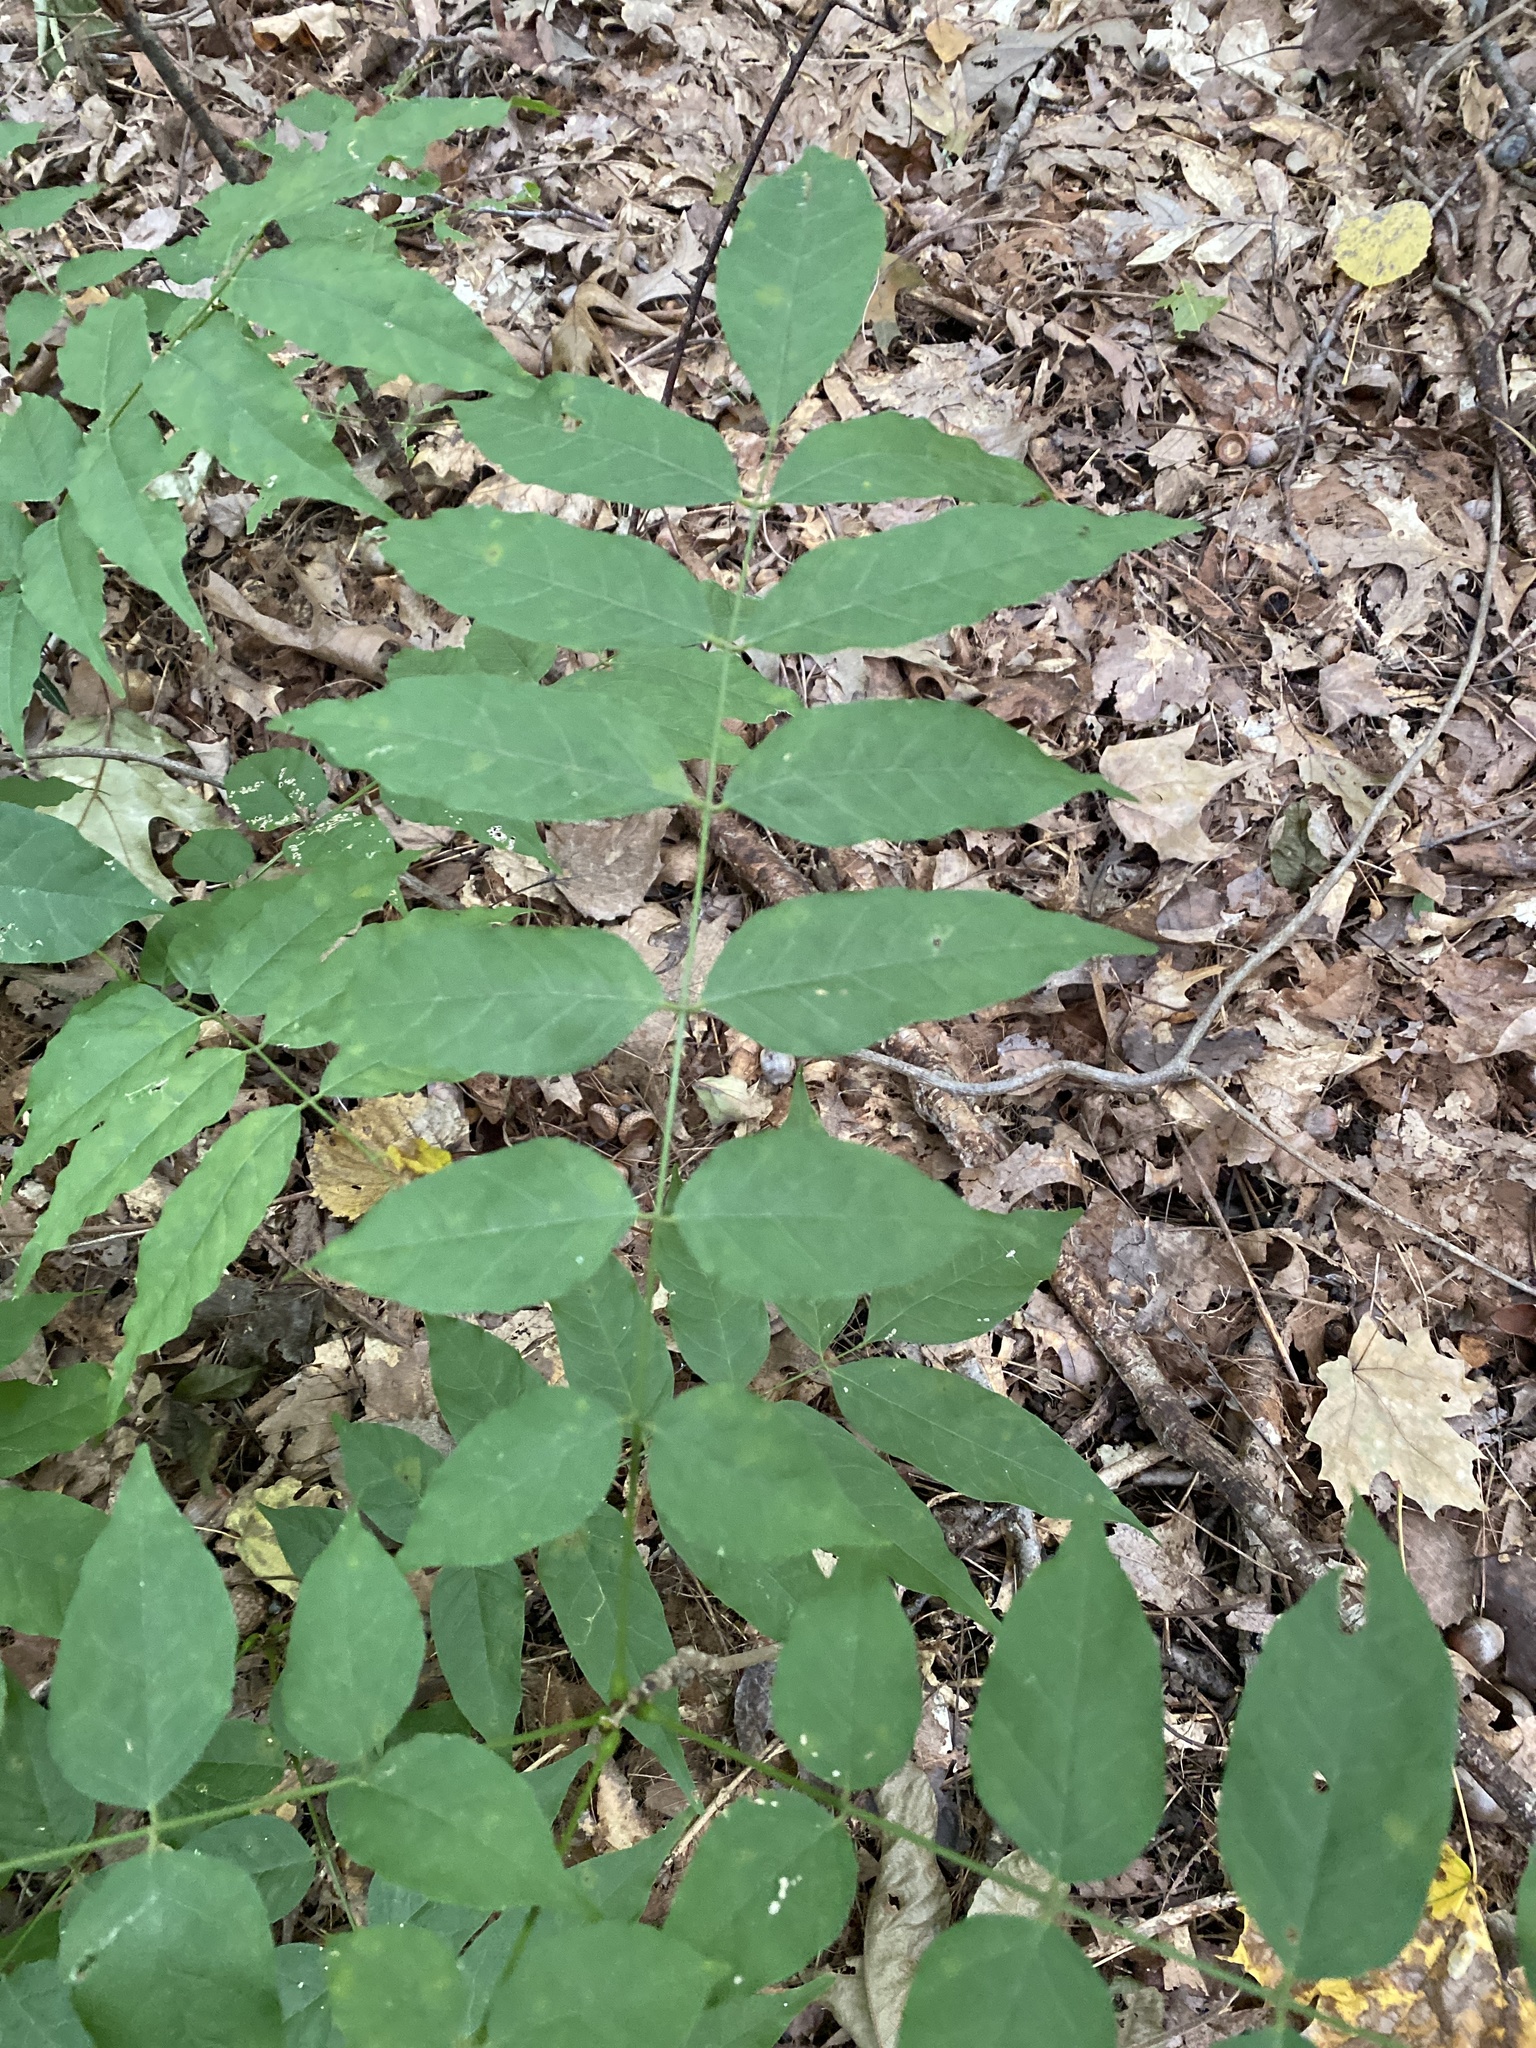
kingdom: Plantae
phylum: Tracheophyta
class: Magnoliopsida
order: Fabales
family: Fabaceae
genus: Wisteria
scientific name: Wisteria sinensis
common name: Chinese wisteria
